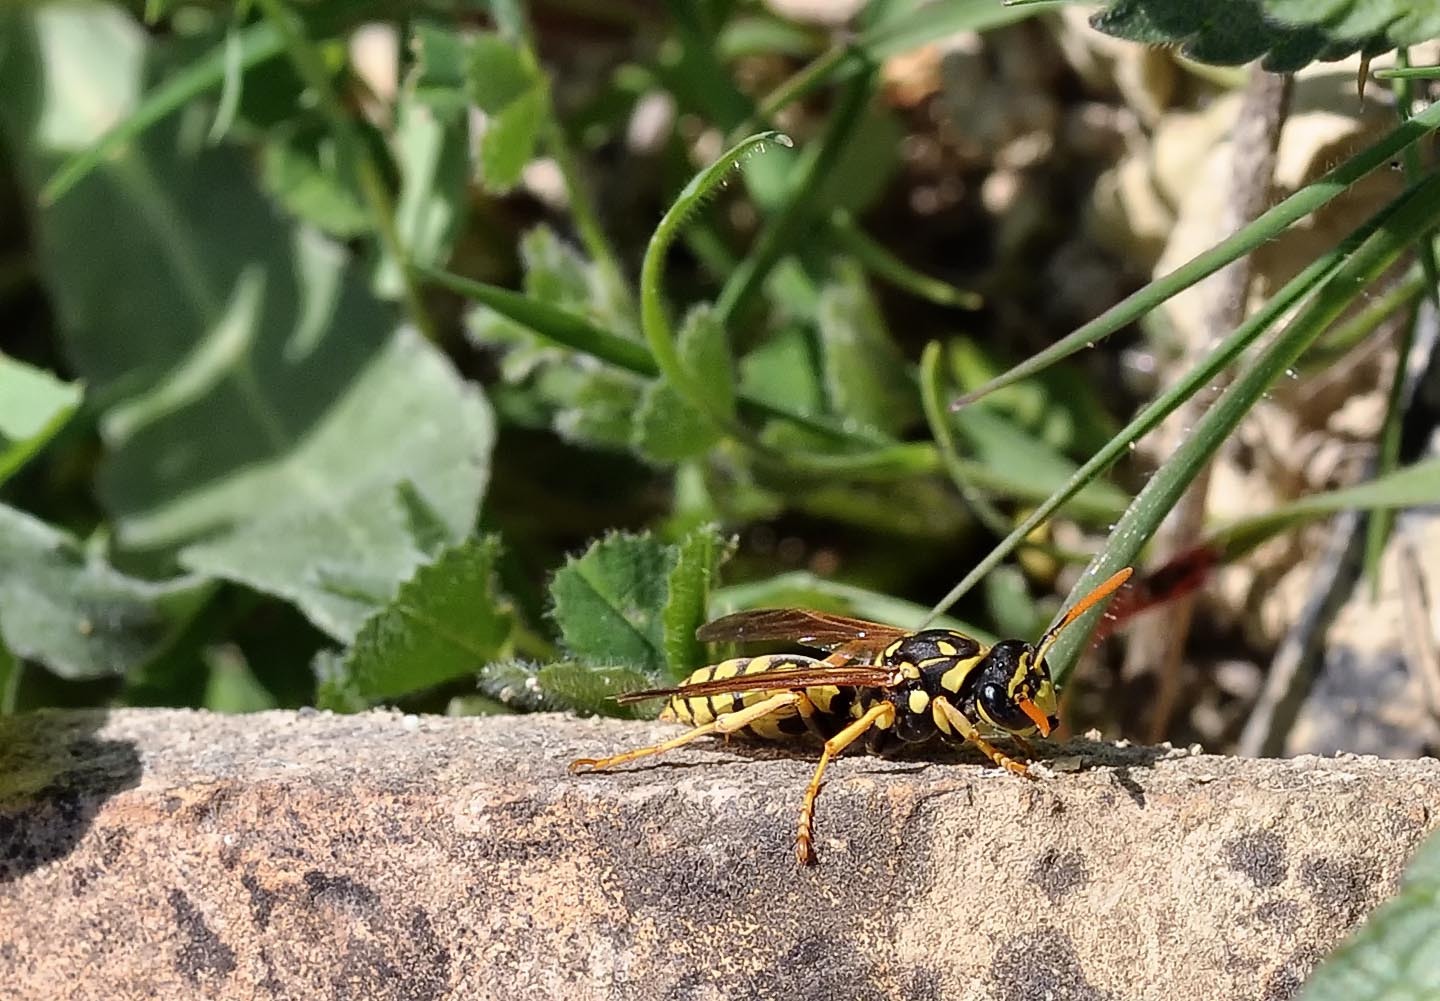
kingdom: Animalia
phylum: Arthropoda
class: Insecta
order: Hymenoptera
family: Eumenidae
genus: Polistes
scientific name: Polistes dominula
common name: Paper wasp
